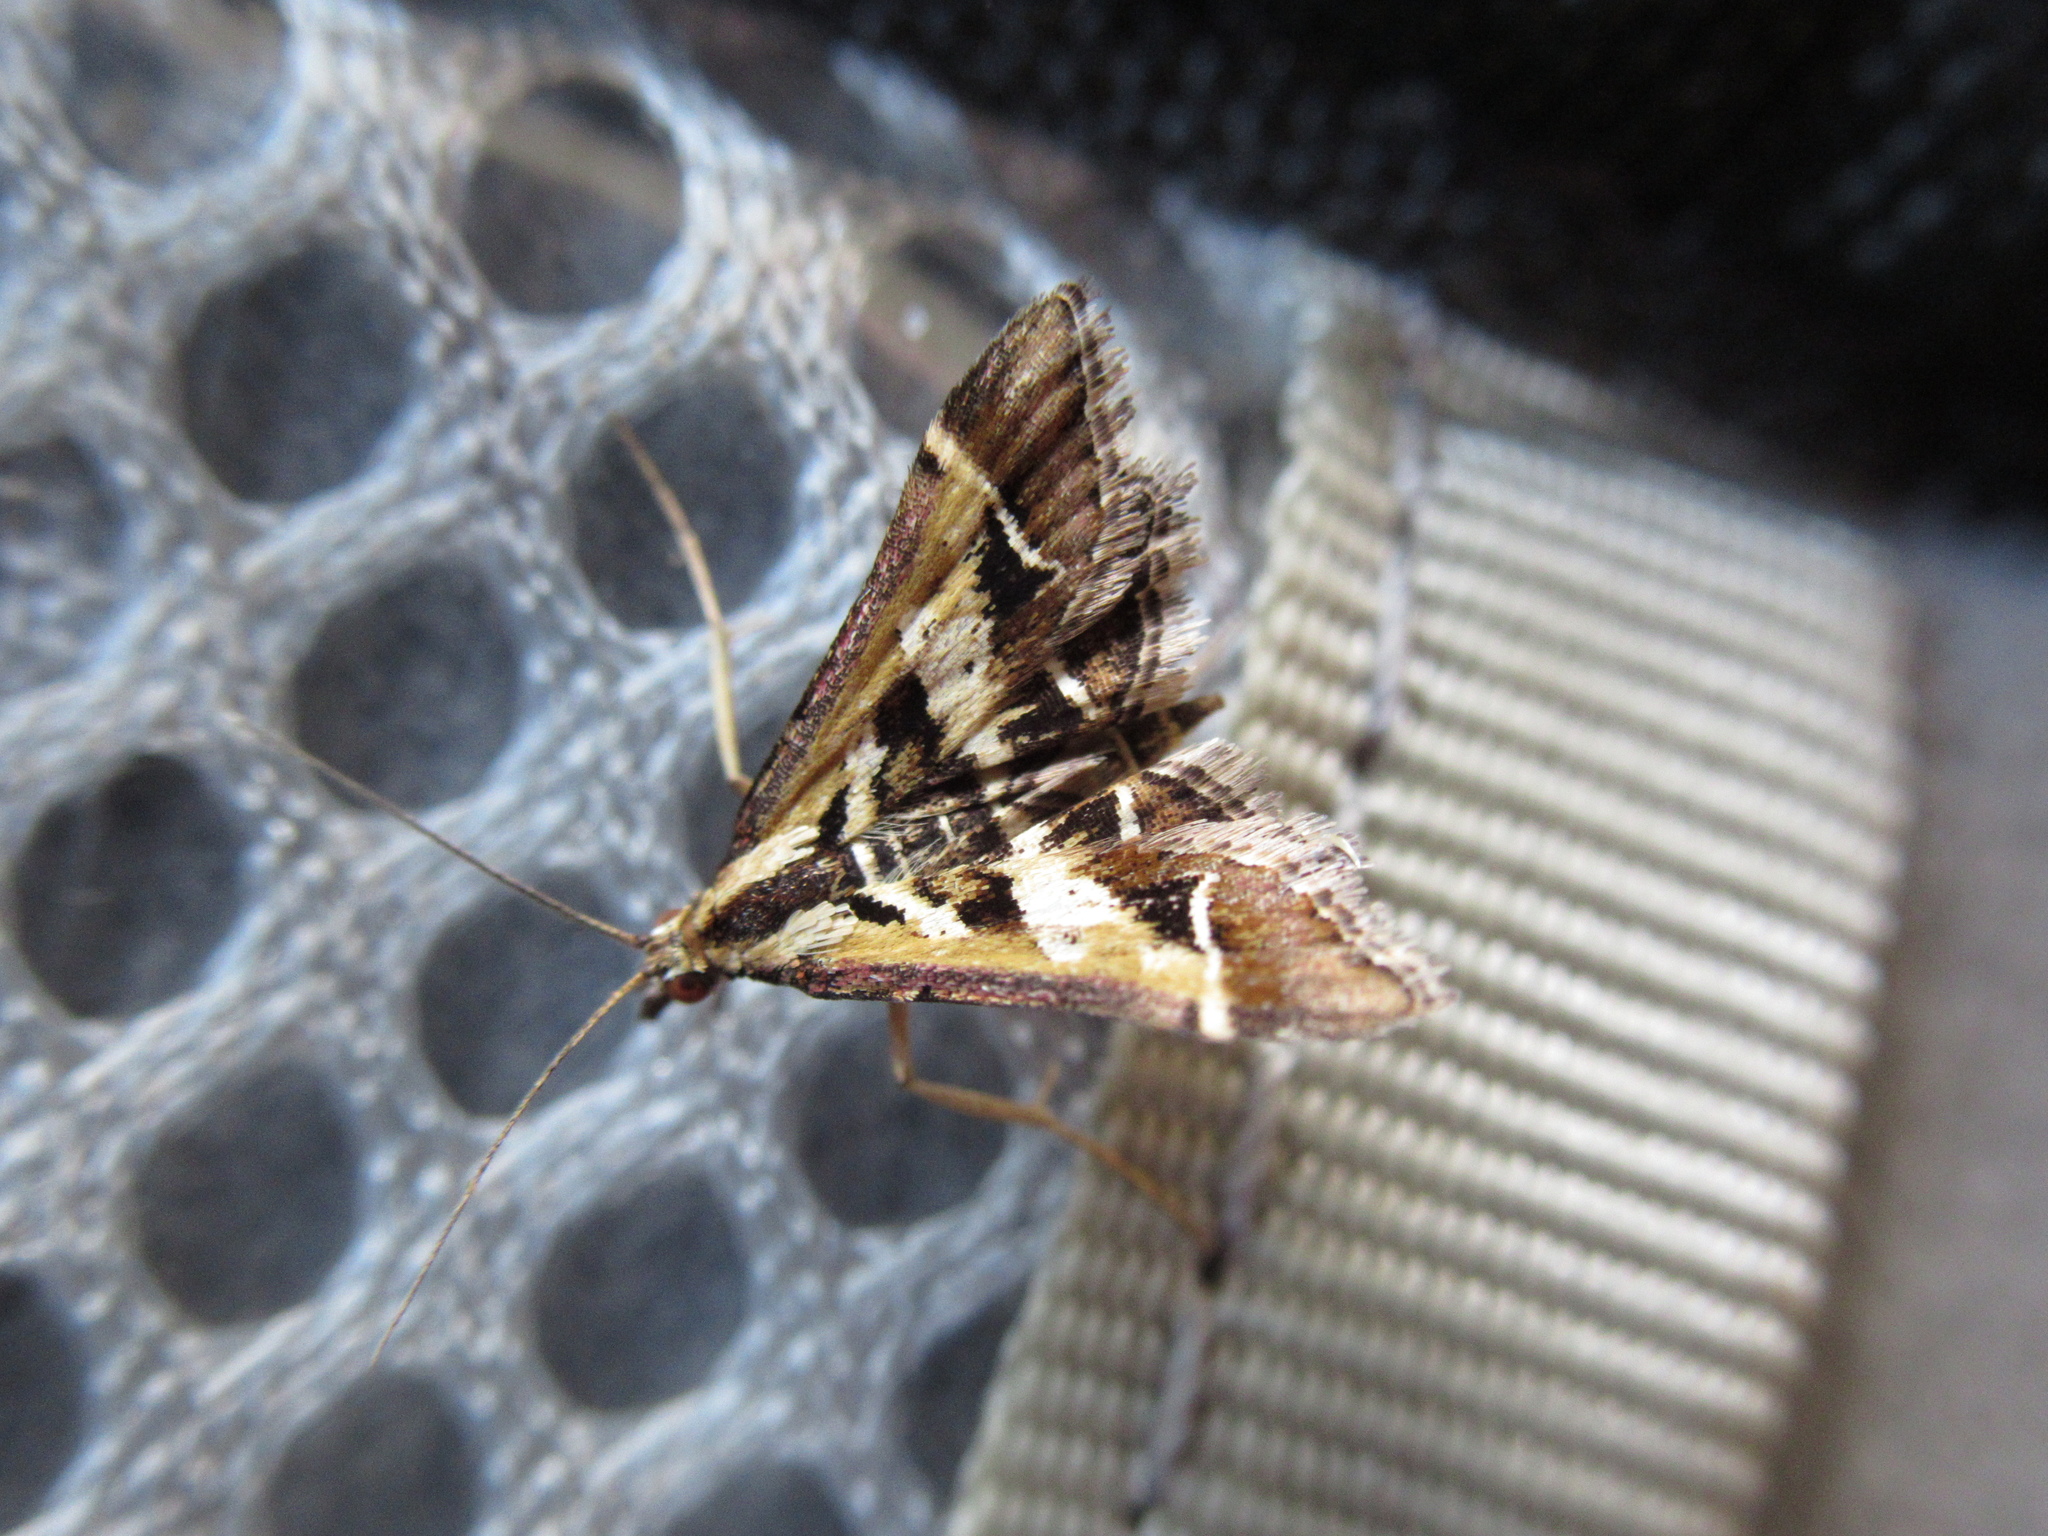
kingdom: Animalia
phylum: Arthropoda
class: Insecta
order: Lepidoptera
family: Crambidae
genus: Diasemia
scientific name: Diasemia grammalis
